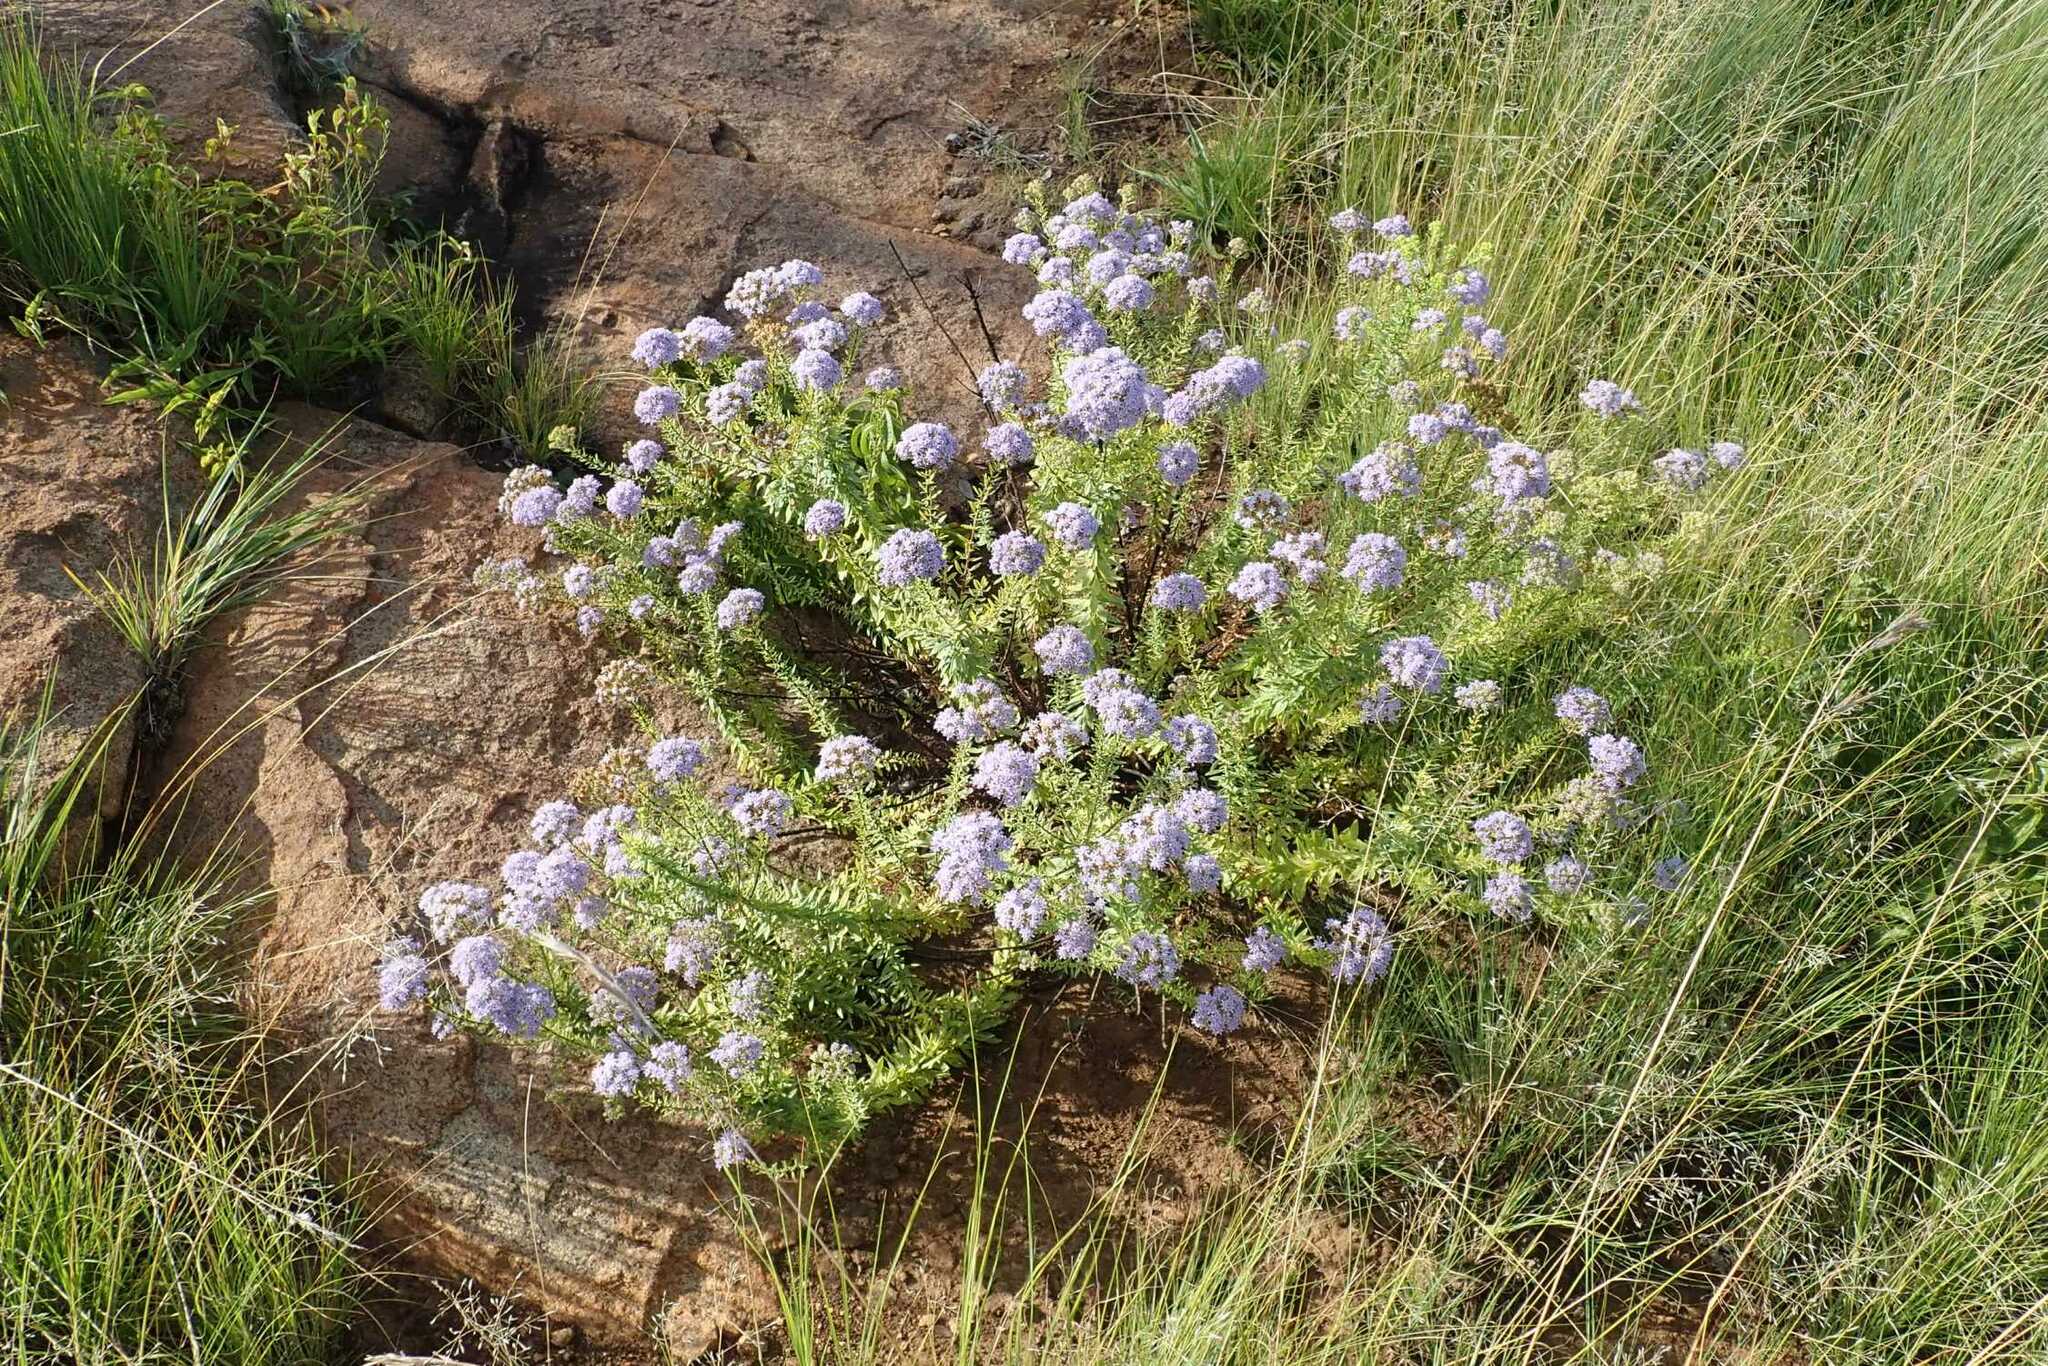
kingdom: Plantae
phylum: Tracheophyta
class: Magnoliopsida
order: Lamiales
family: Scrophulariaceae
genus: Tetraselago
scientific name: Tetraselago wilmsii
